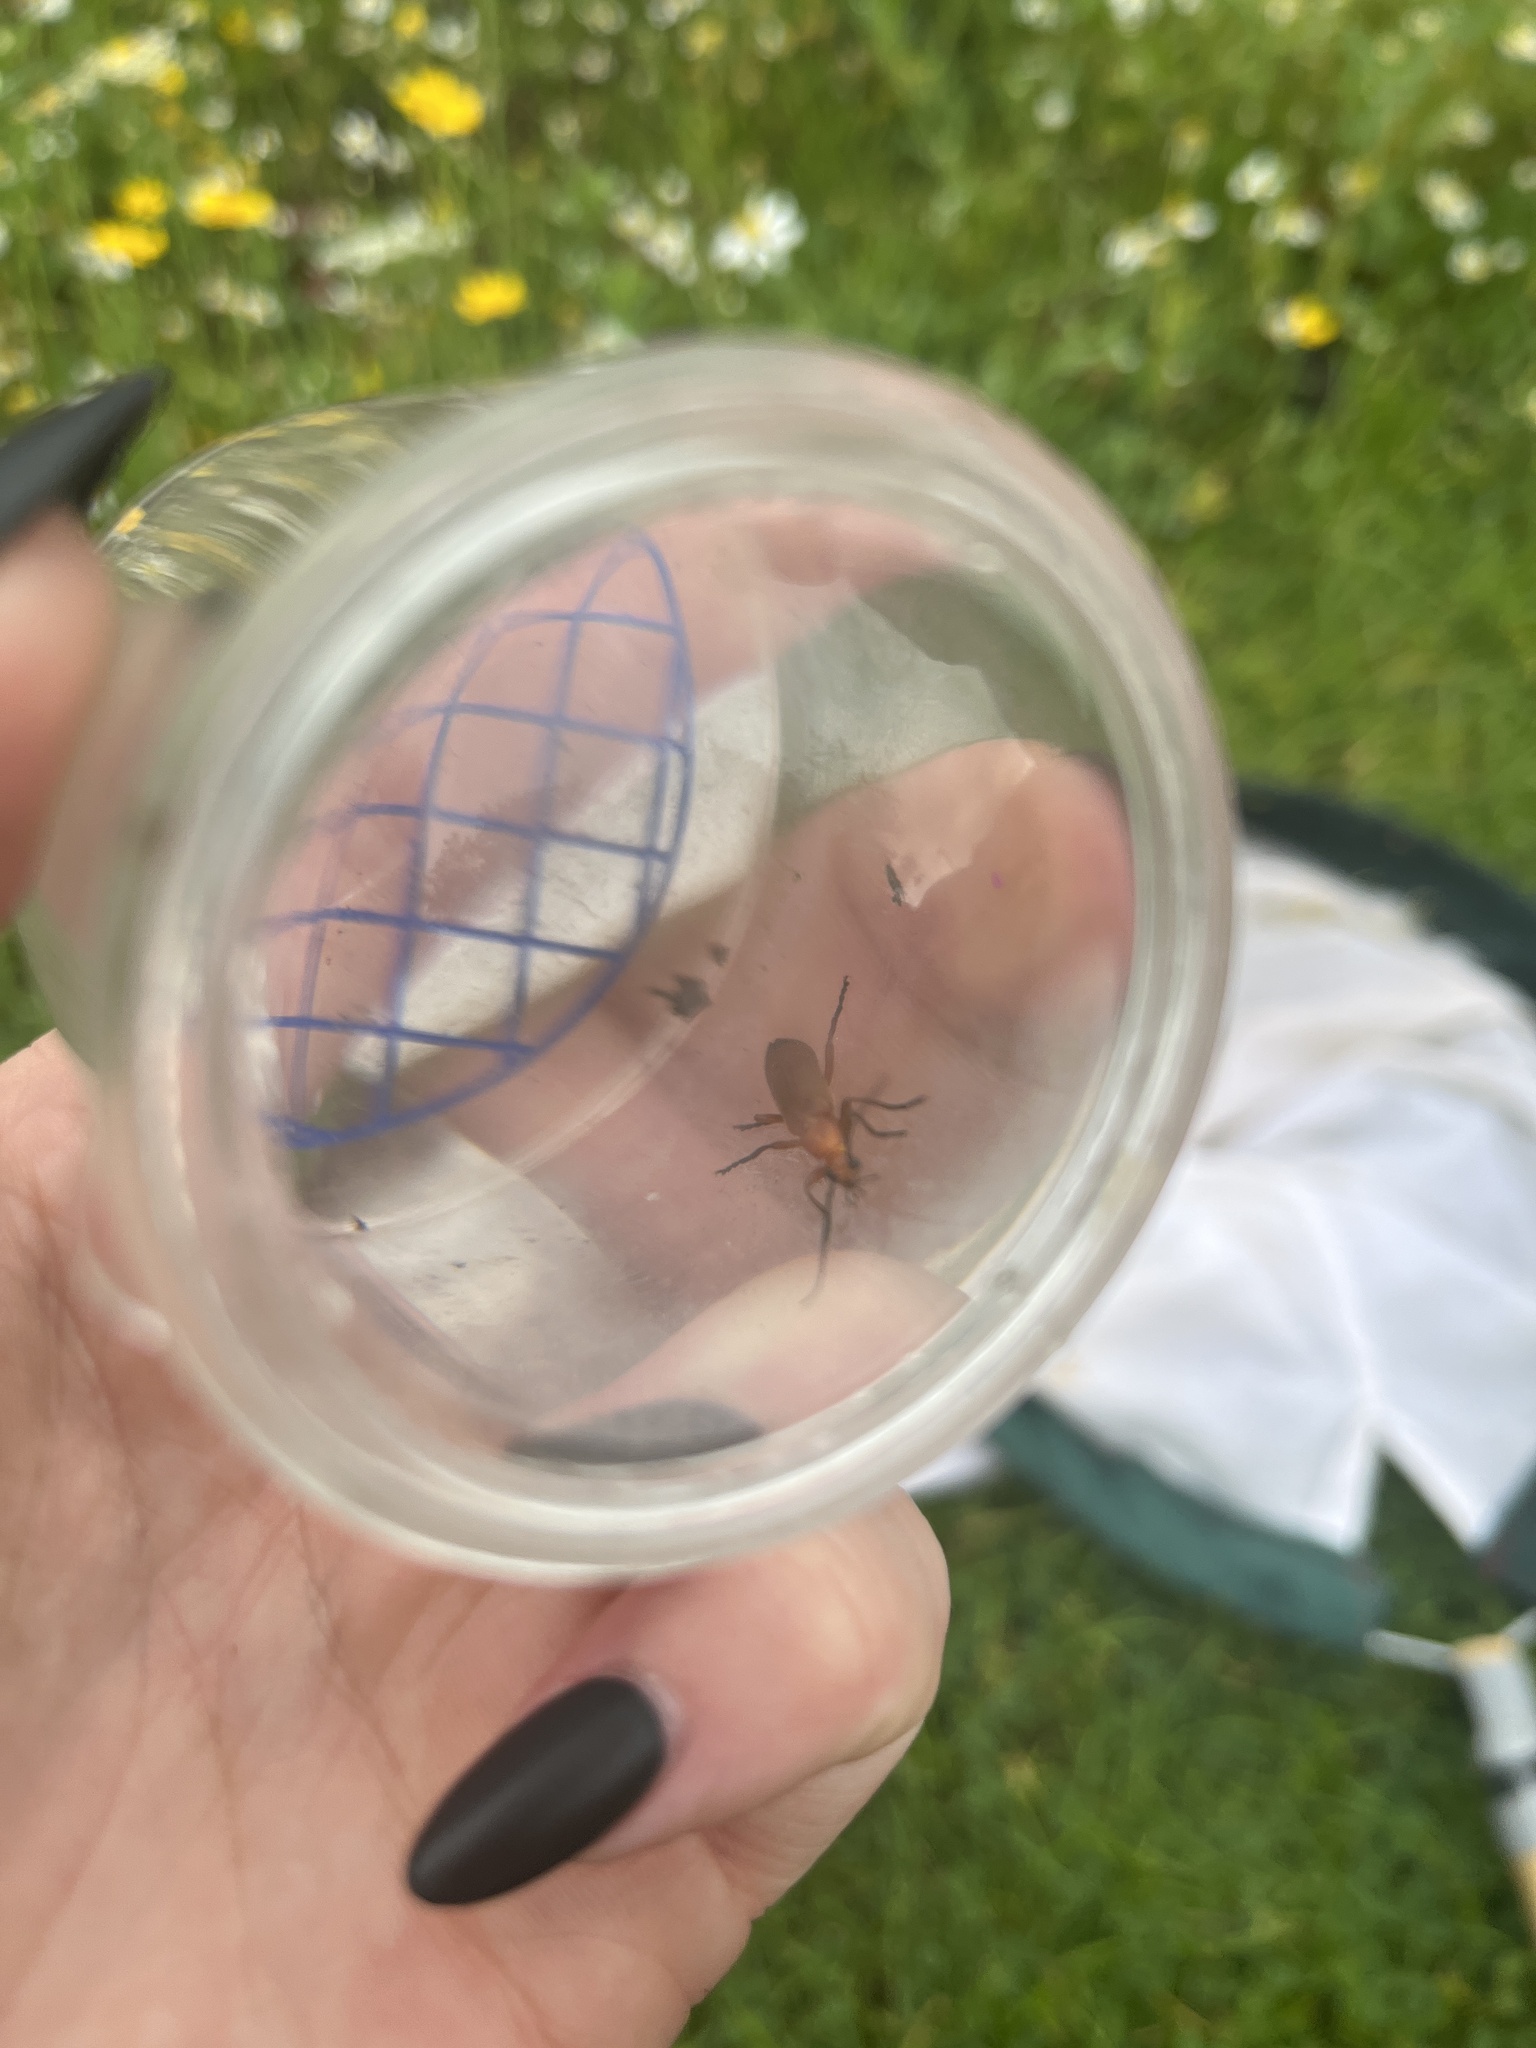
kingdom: Animalia
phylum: Arthropoda
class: Insecta
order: Coleoptera
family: Cantharidae
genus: Rhagonycha
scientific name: Rhagonycha fulva
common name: Common red soldier beetle
